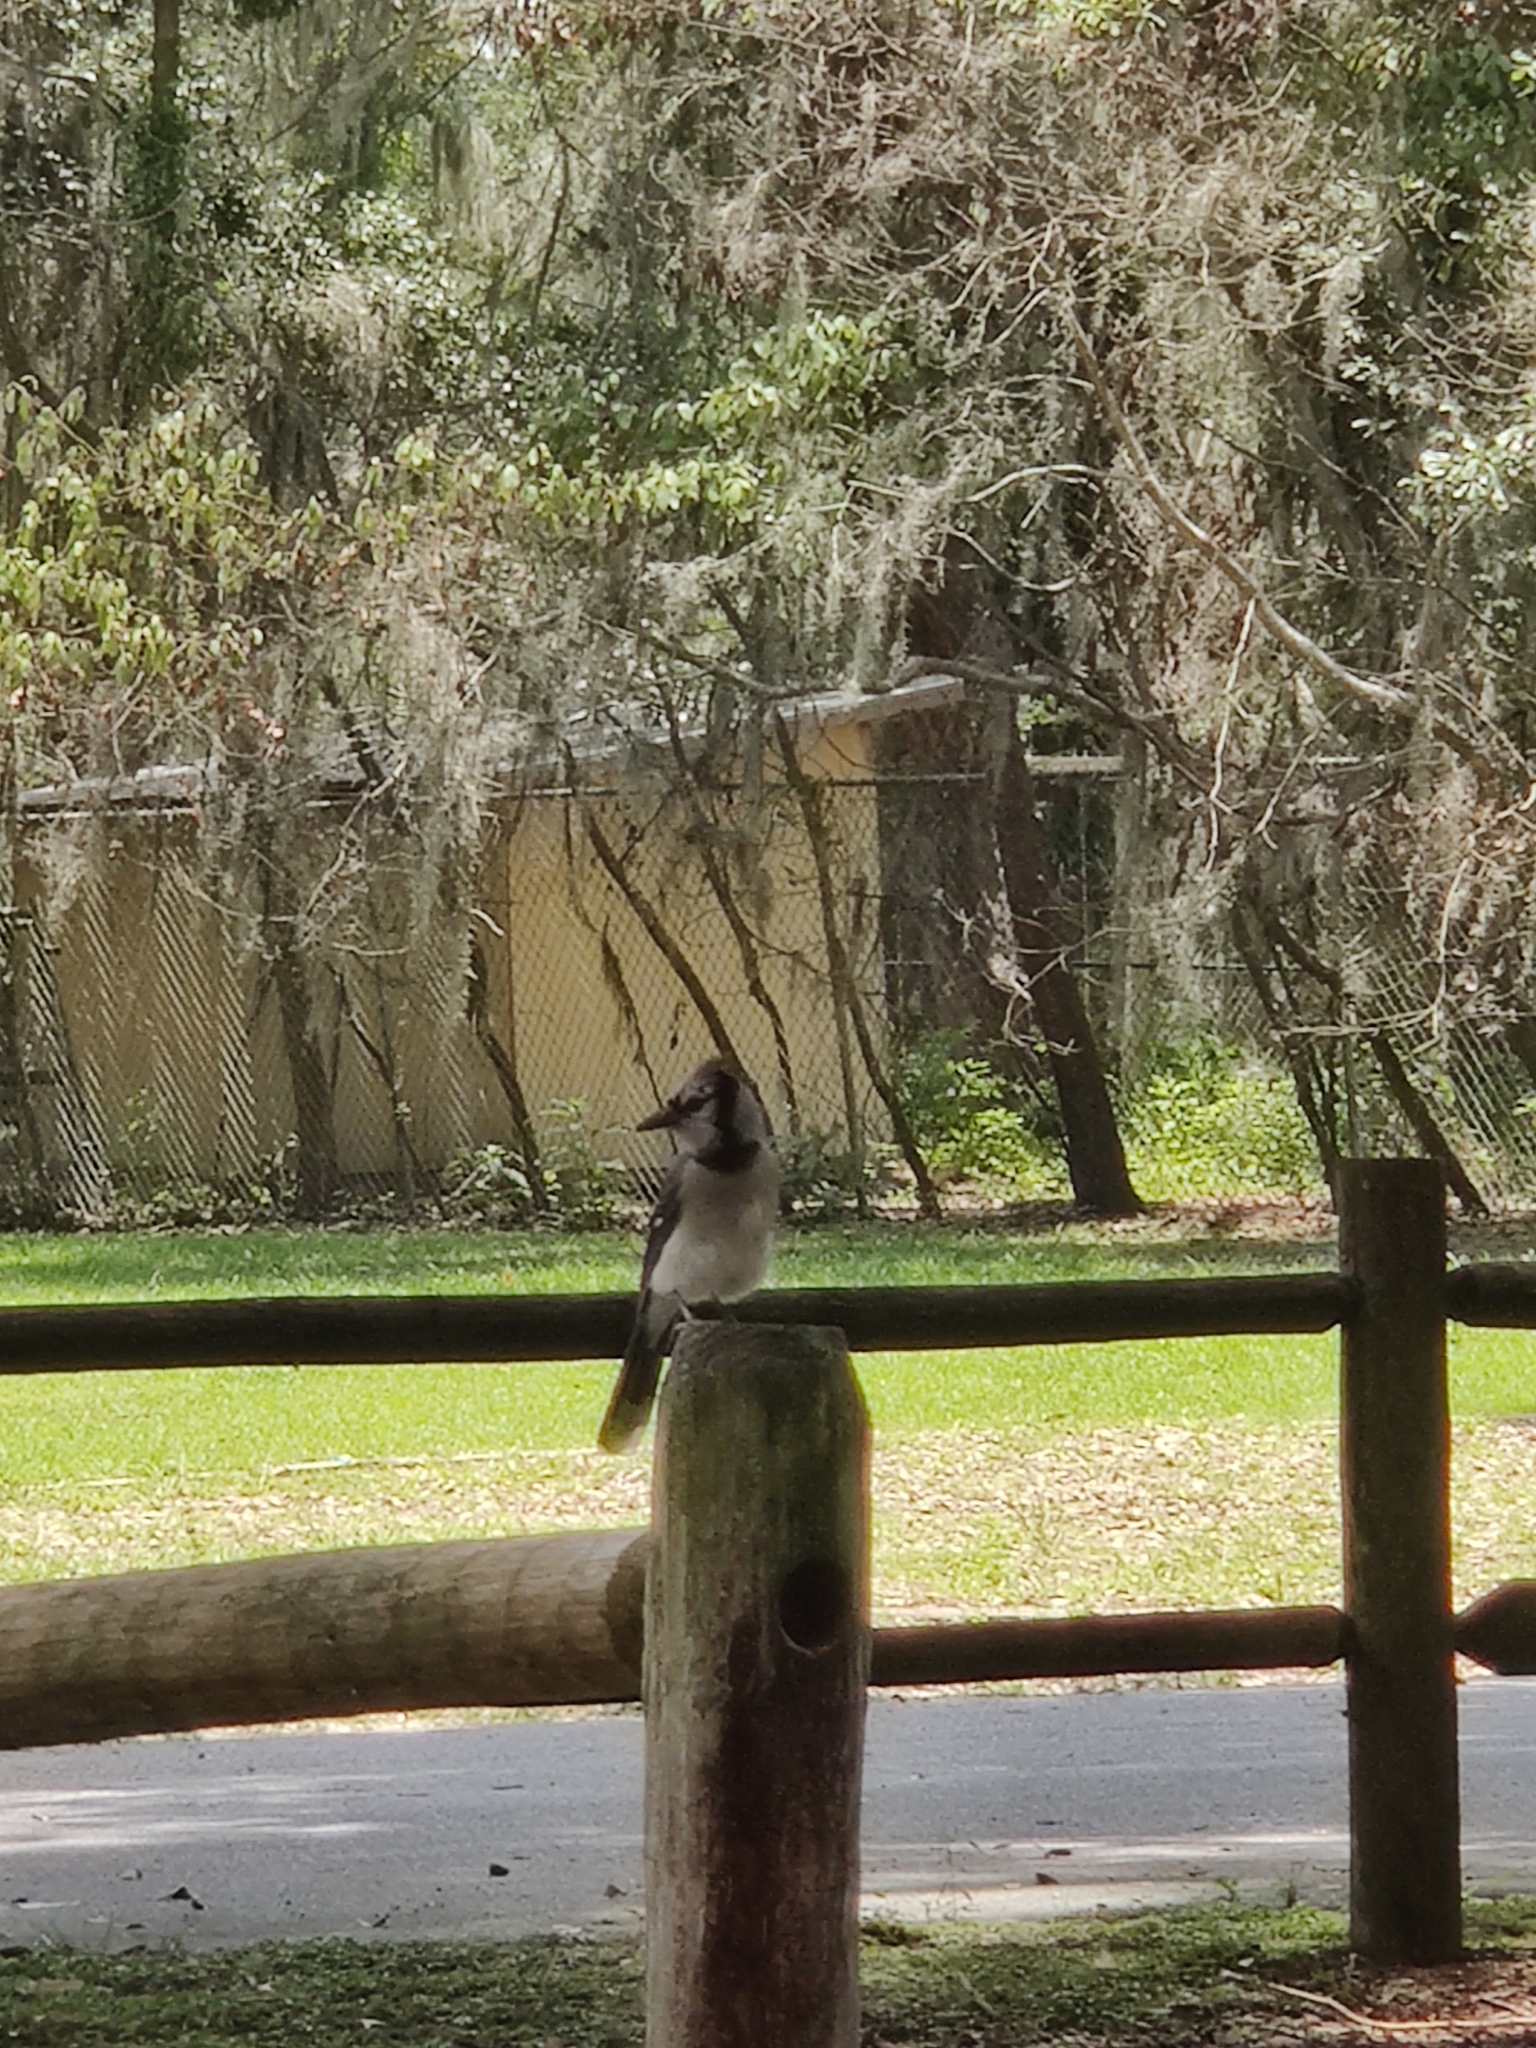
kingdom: Animalia
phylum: Chordata
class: Aves
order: Passeriformes
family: Corvidae
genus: Cyanocitta
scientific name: Cyanocitta cristata
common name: Blue jay
